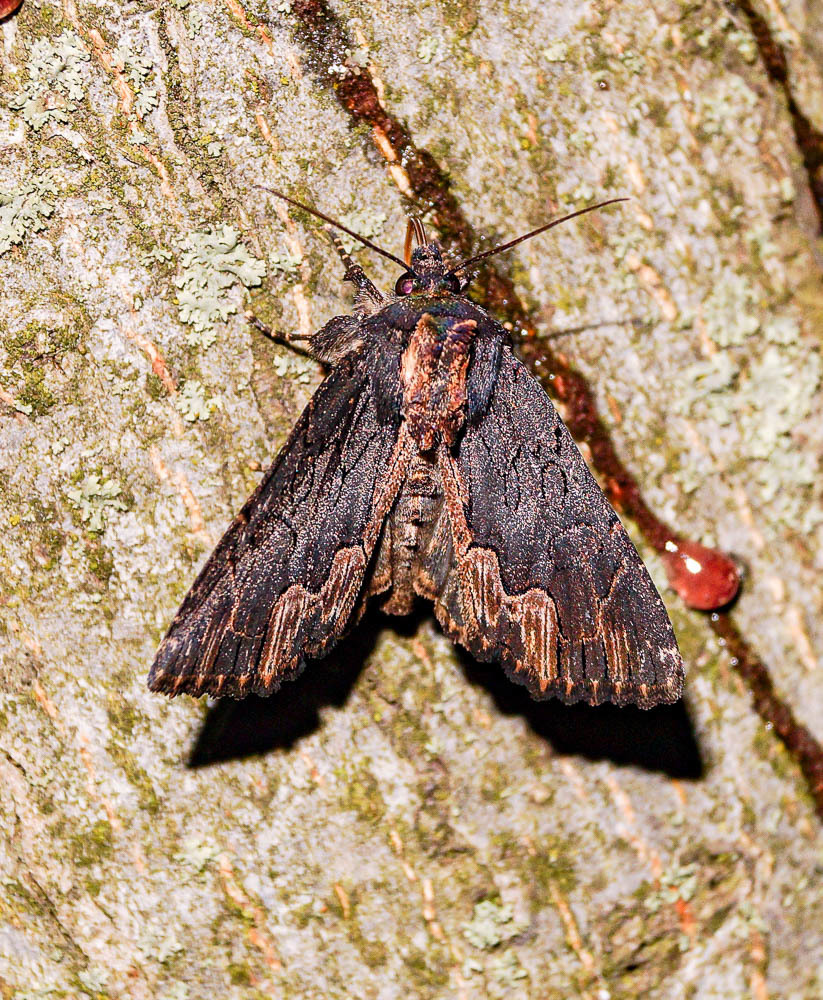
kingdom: Animalia
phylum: Arthropoda
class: Insecta
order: Lepidoptera
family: Noctuidae
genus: Dypterygia
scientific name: Dypterygia scabriuscula
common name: Bird's wing
